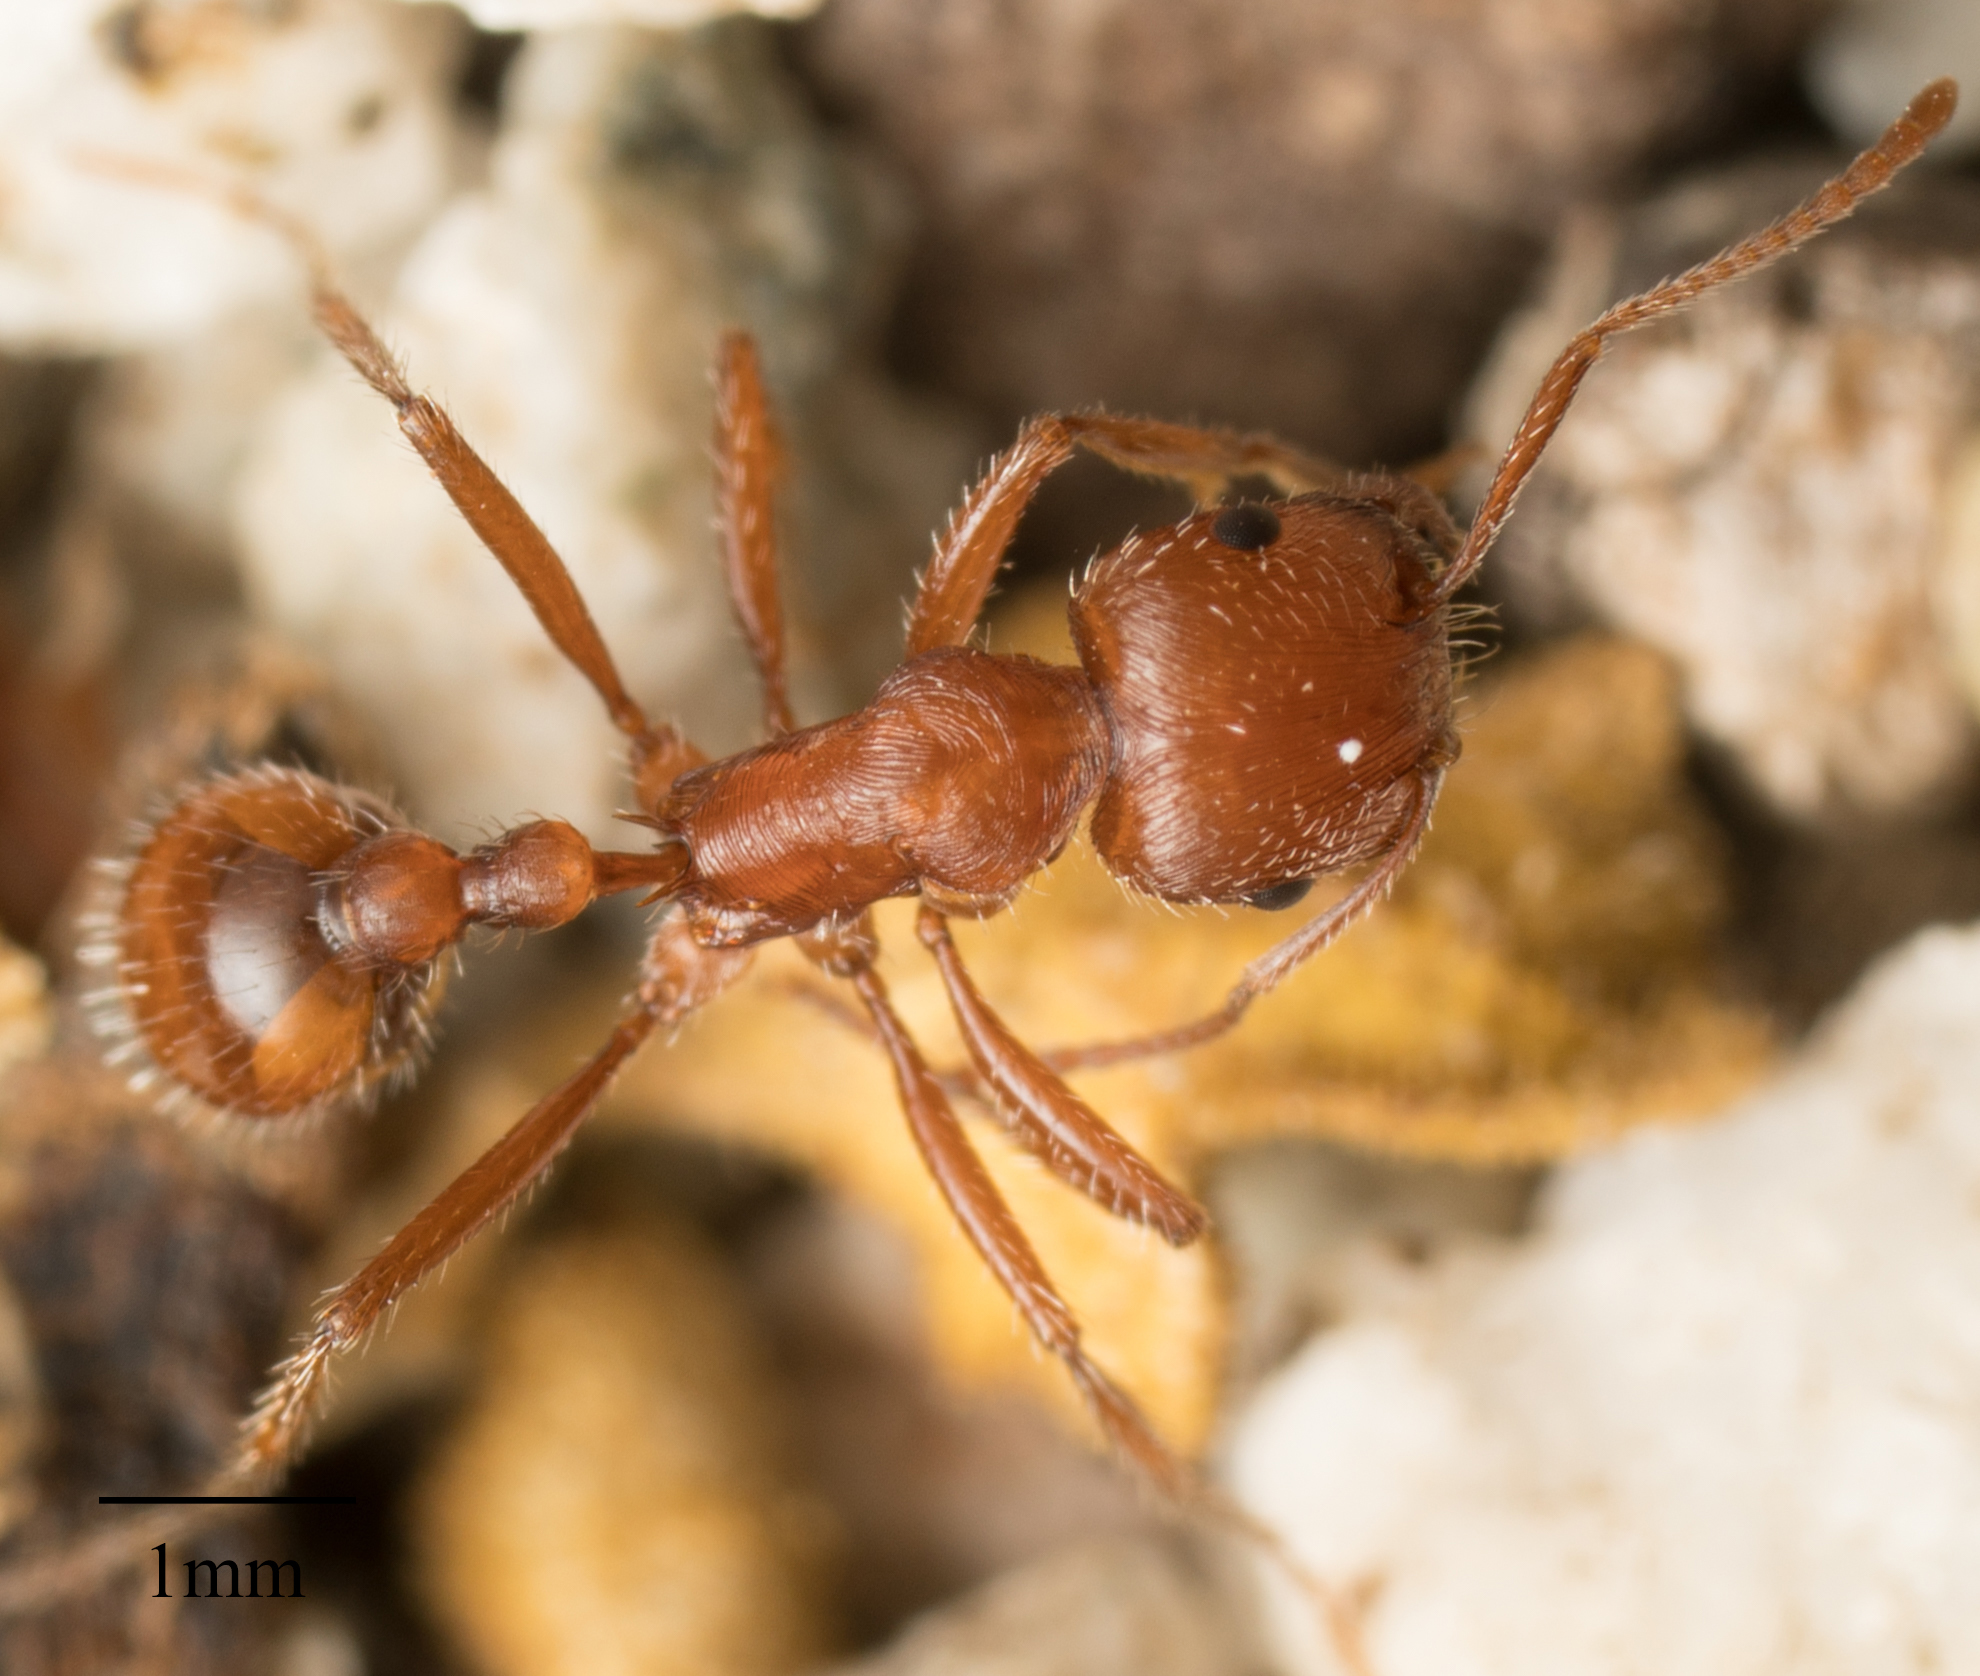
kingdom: Animalia
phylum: Arthropoda
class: Insecta
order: Hymenoptera
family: Formicidae
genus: Pogonomyrmex
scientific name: Pogonomyrmex subnitidus
